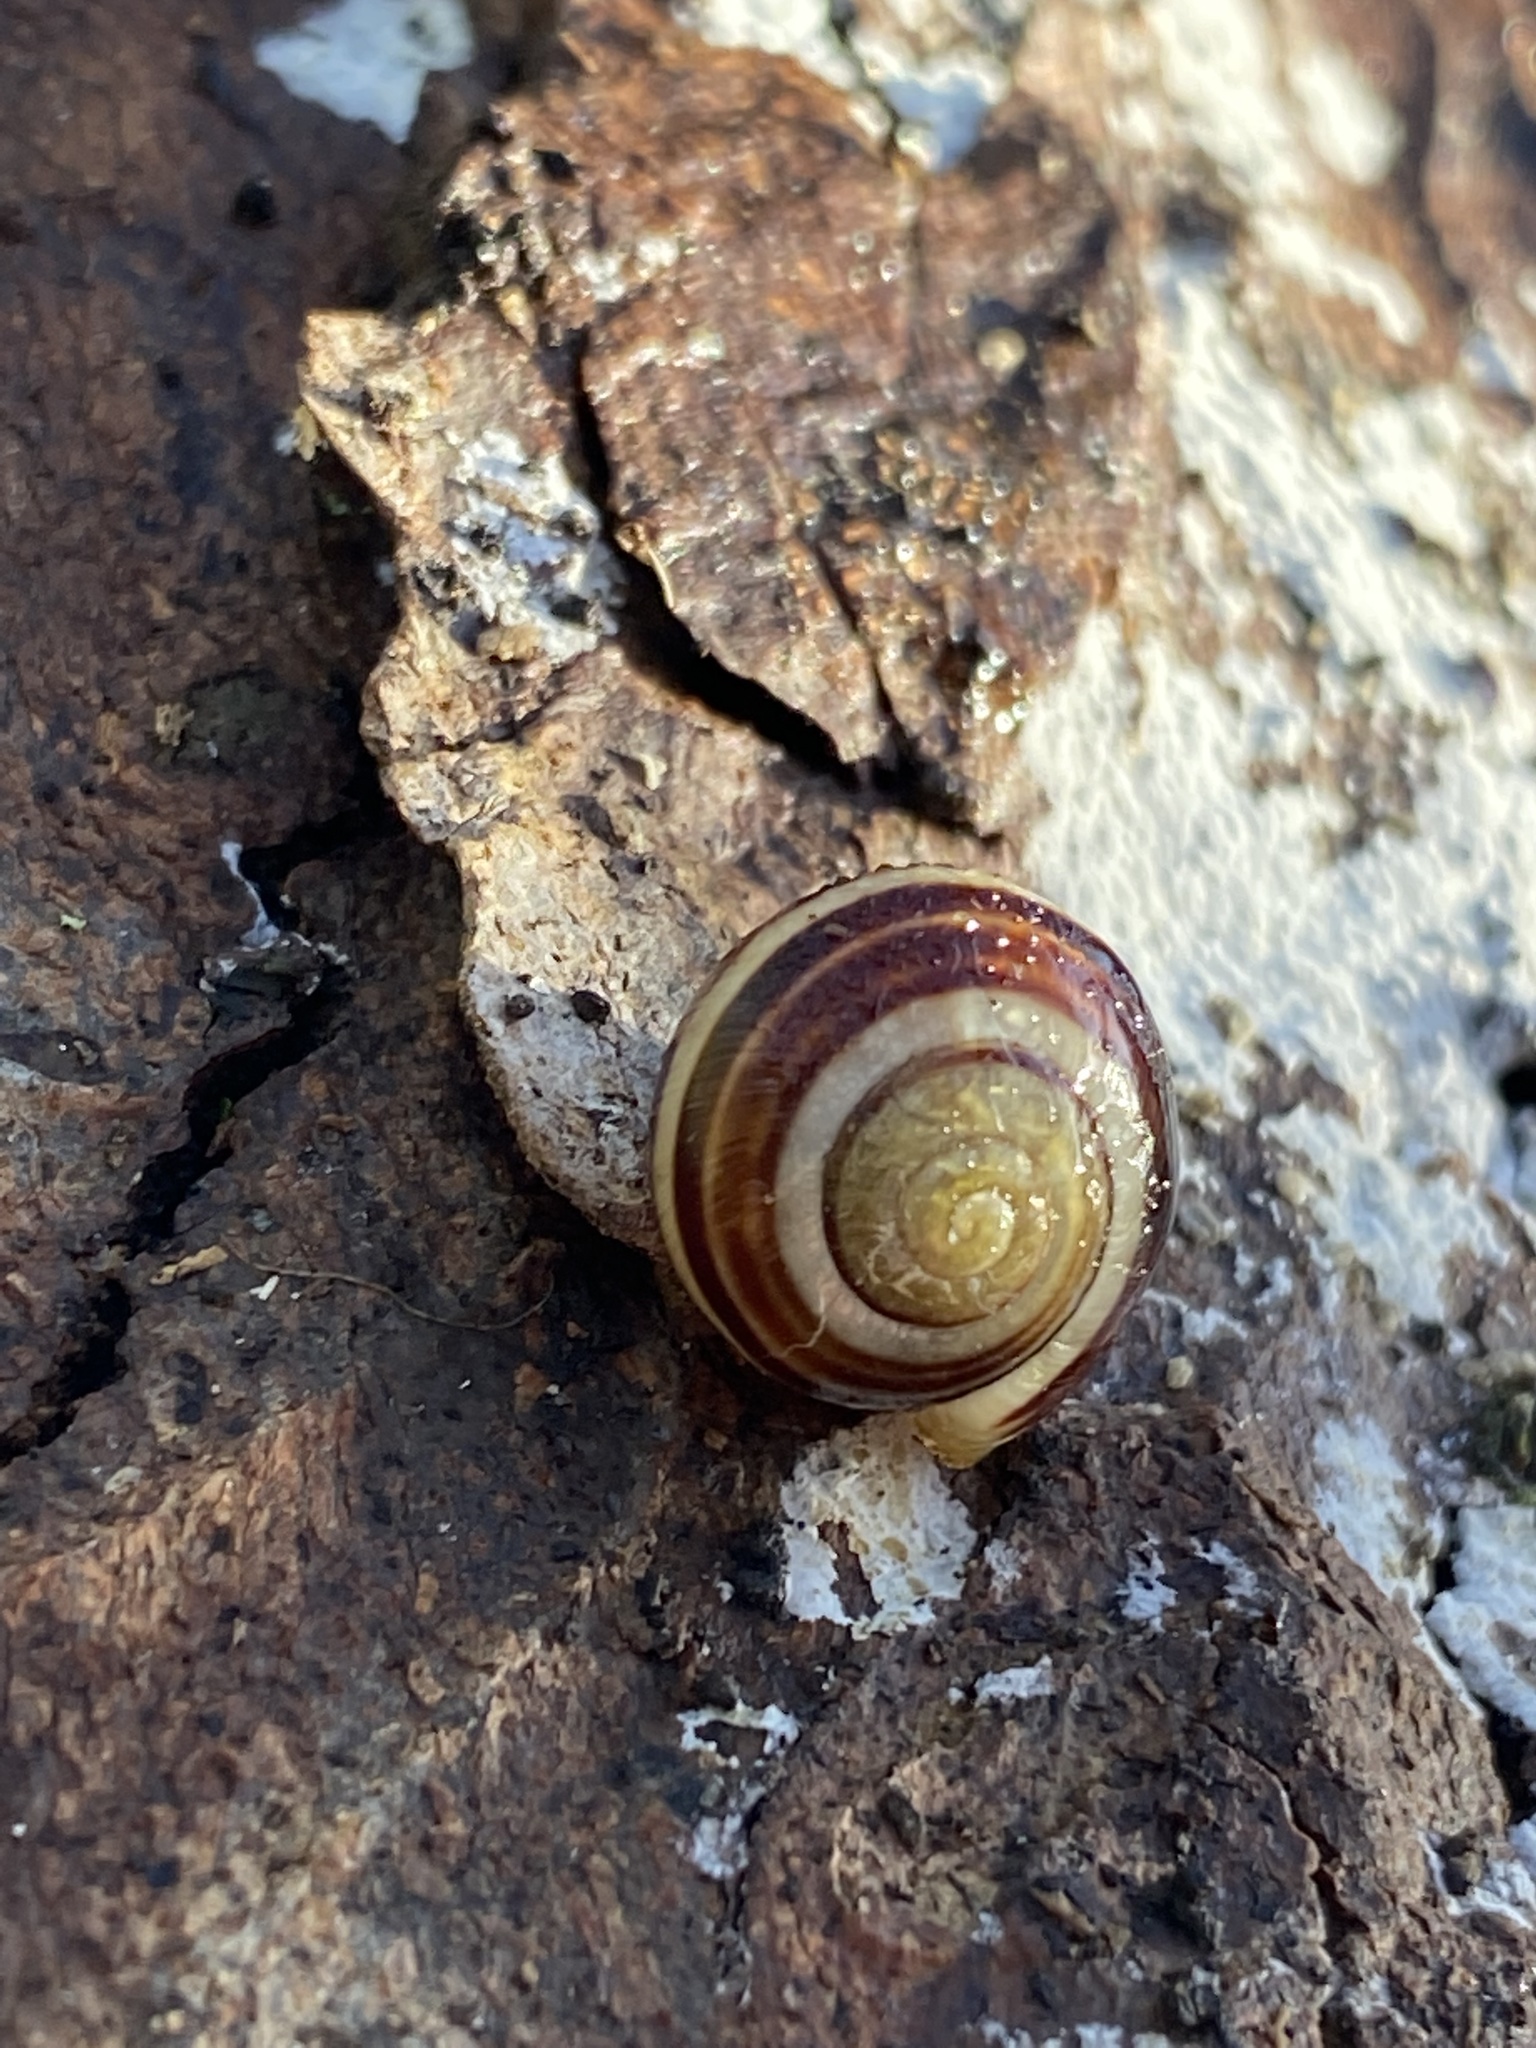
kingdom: Animalia
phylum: Mollusca
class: Gastropoda
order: Stylommatophora
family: Helicidae
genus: Cepaea
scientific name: Cepaea
